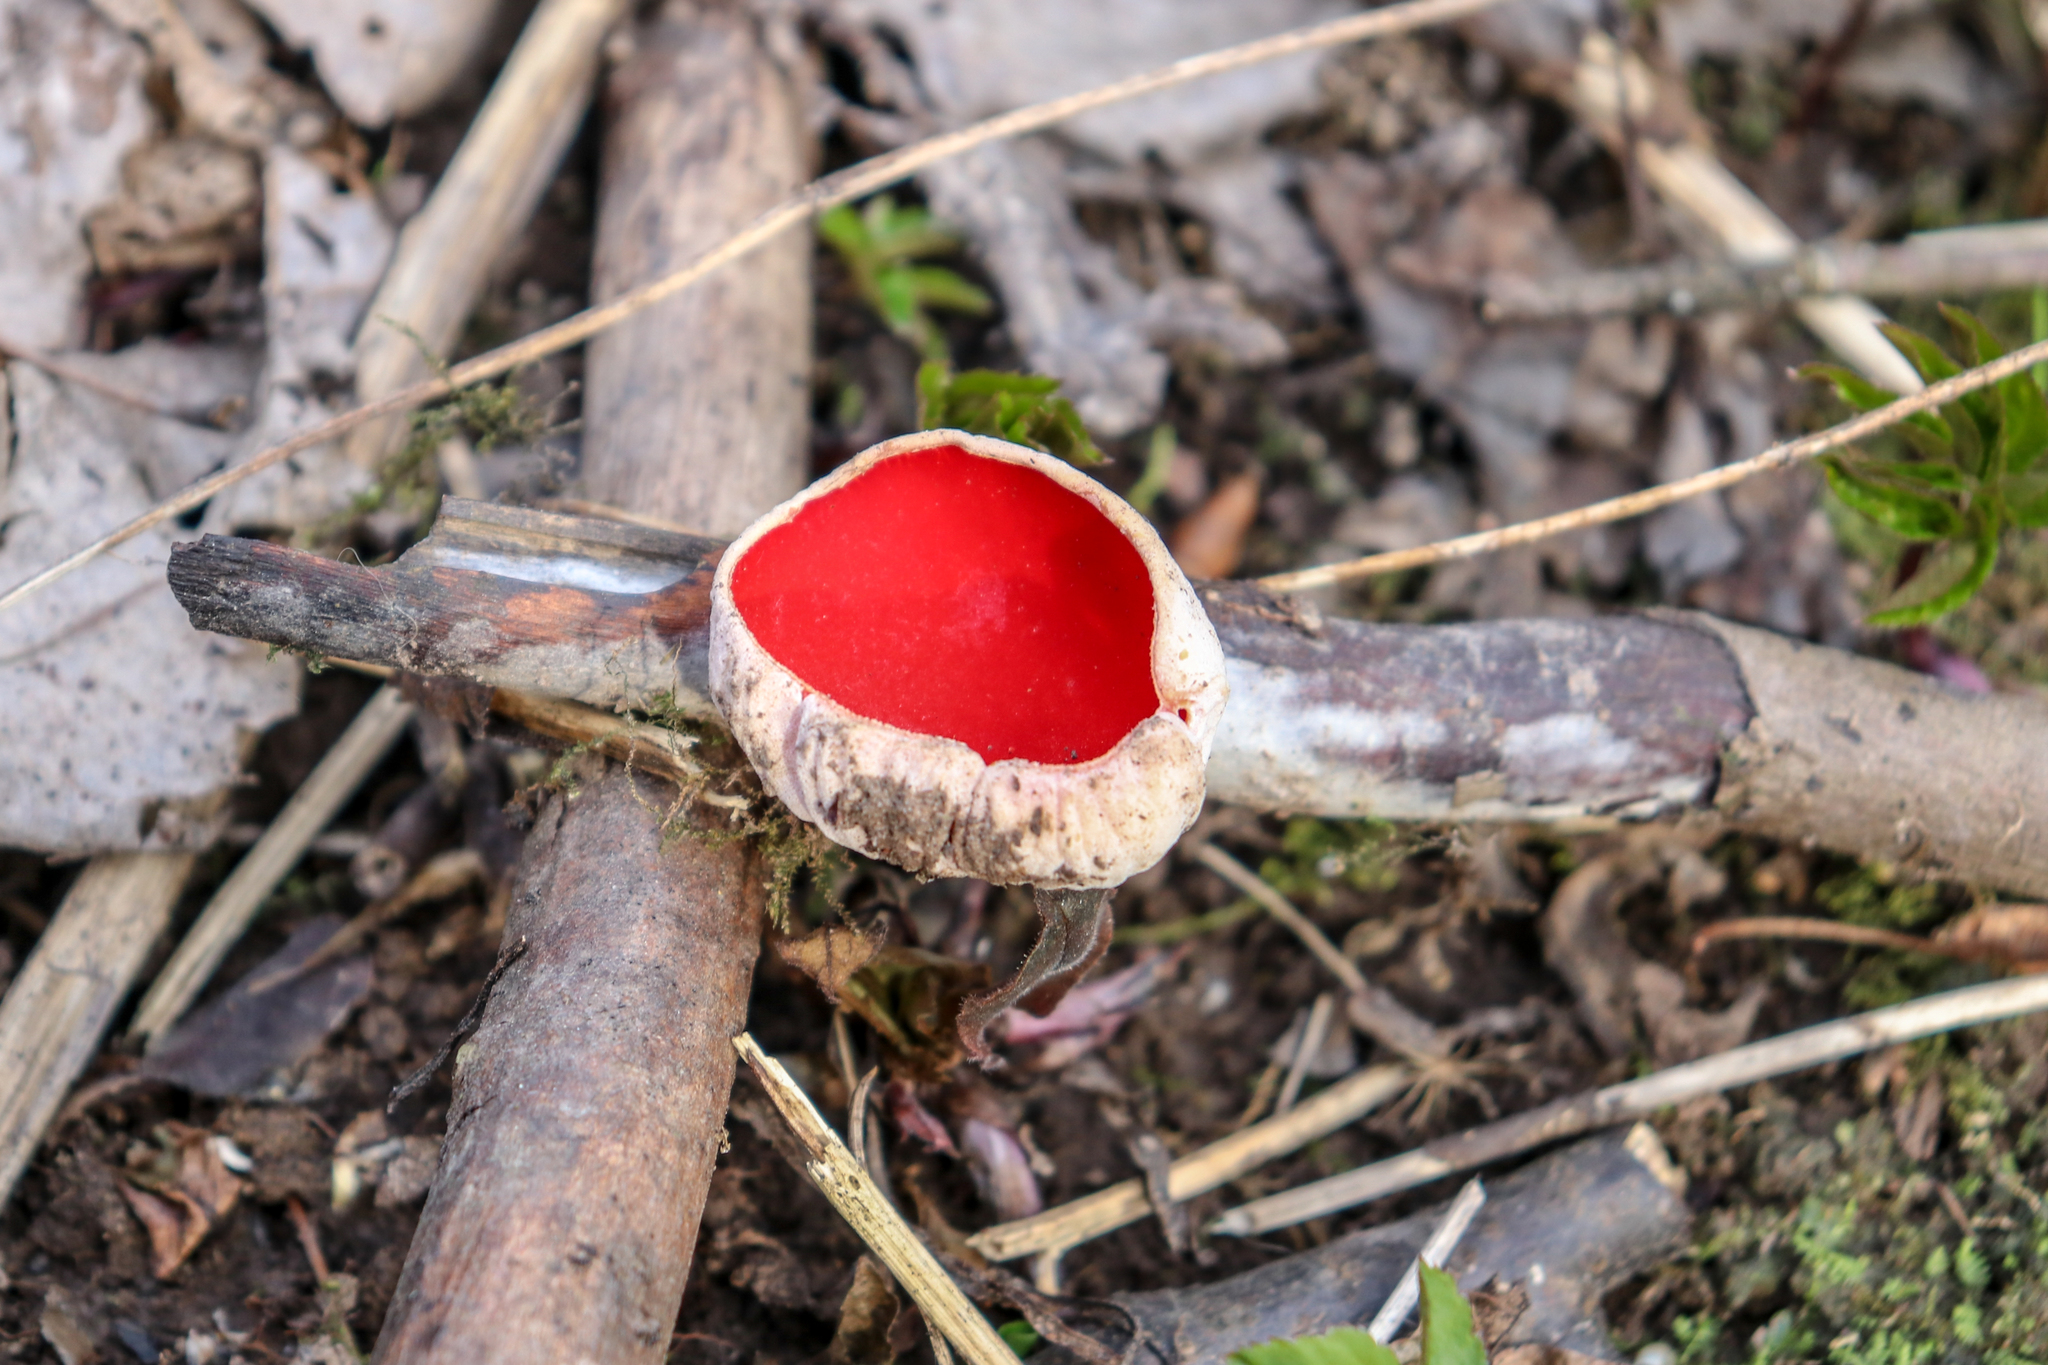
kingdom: Fungi
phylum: Ascomycota
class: Pezizomycetes
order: Pezizales
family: Sarcoscyphaceae
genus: Sarcoscypha
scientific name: Sarcoscypha austriaca
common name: Scarlet elfcup
